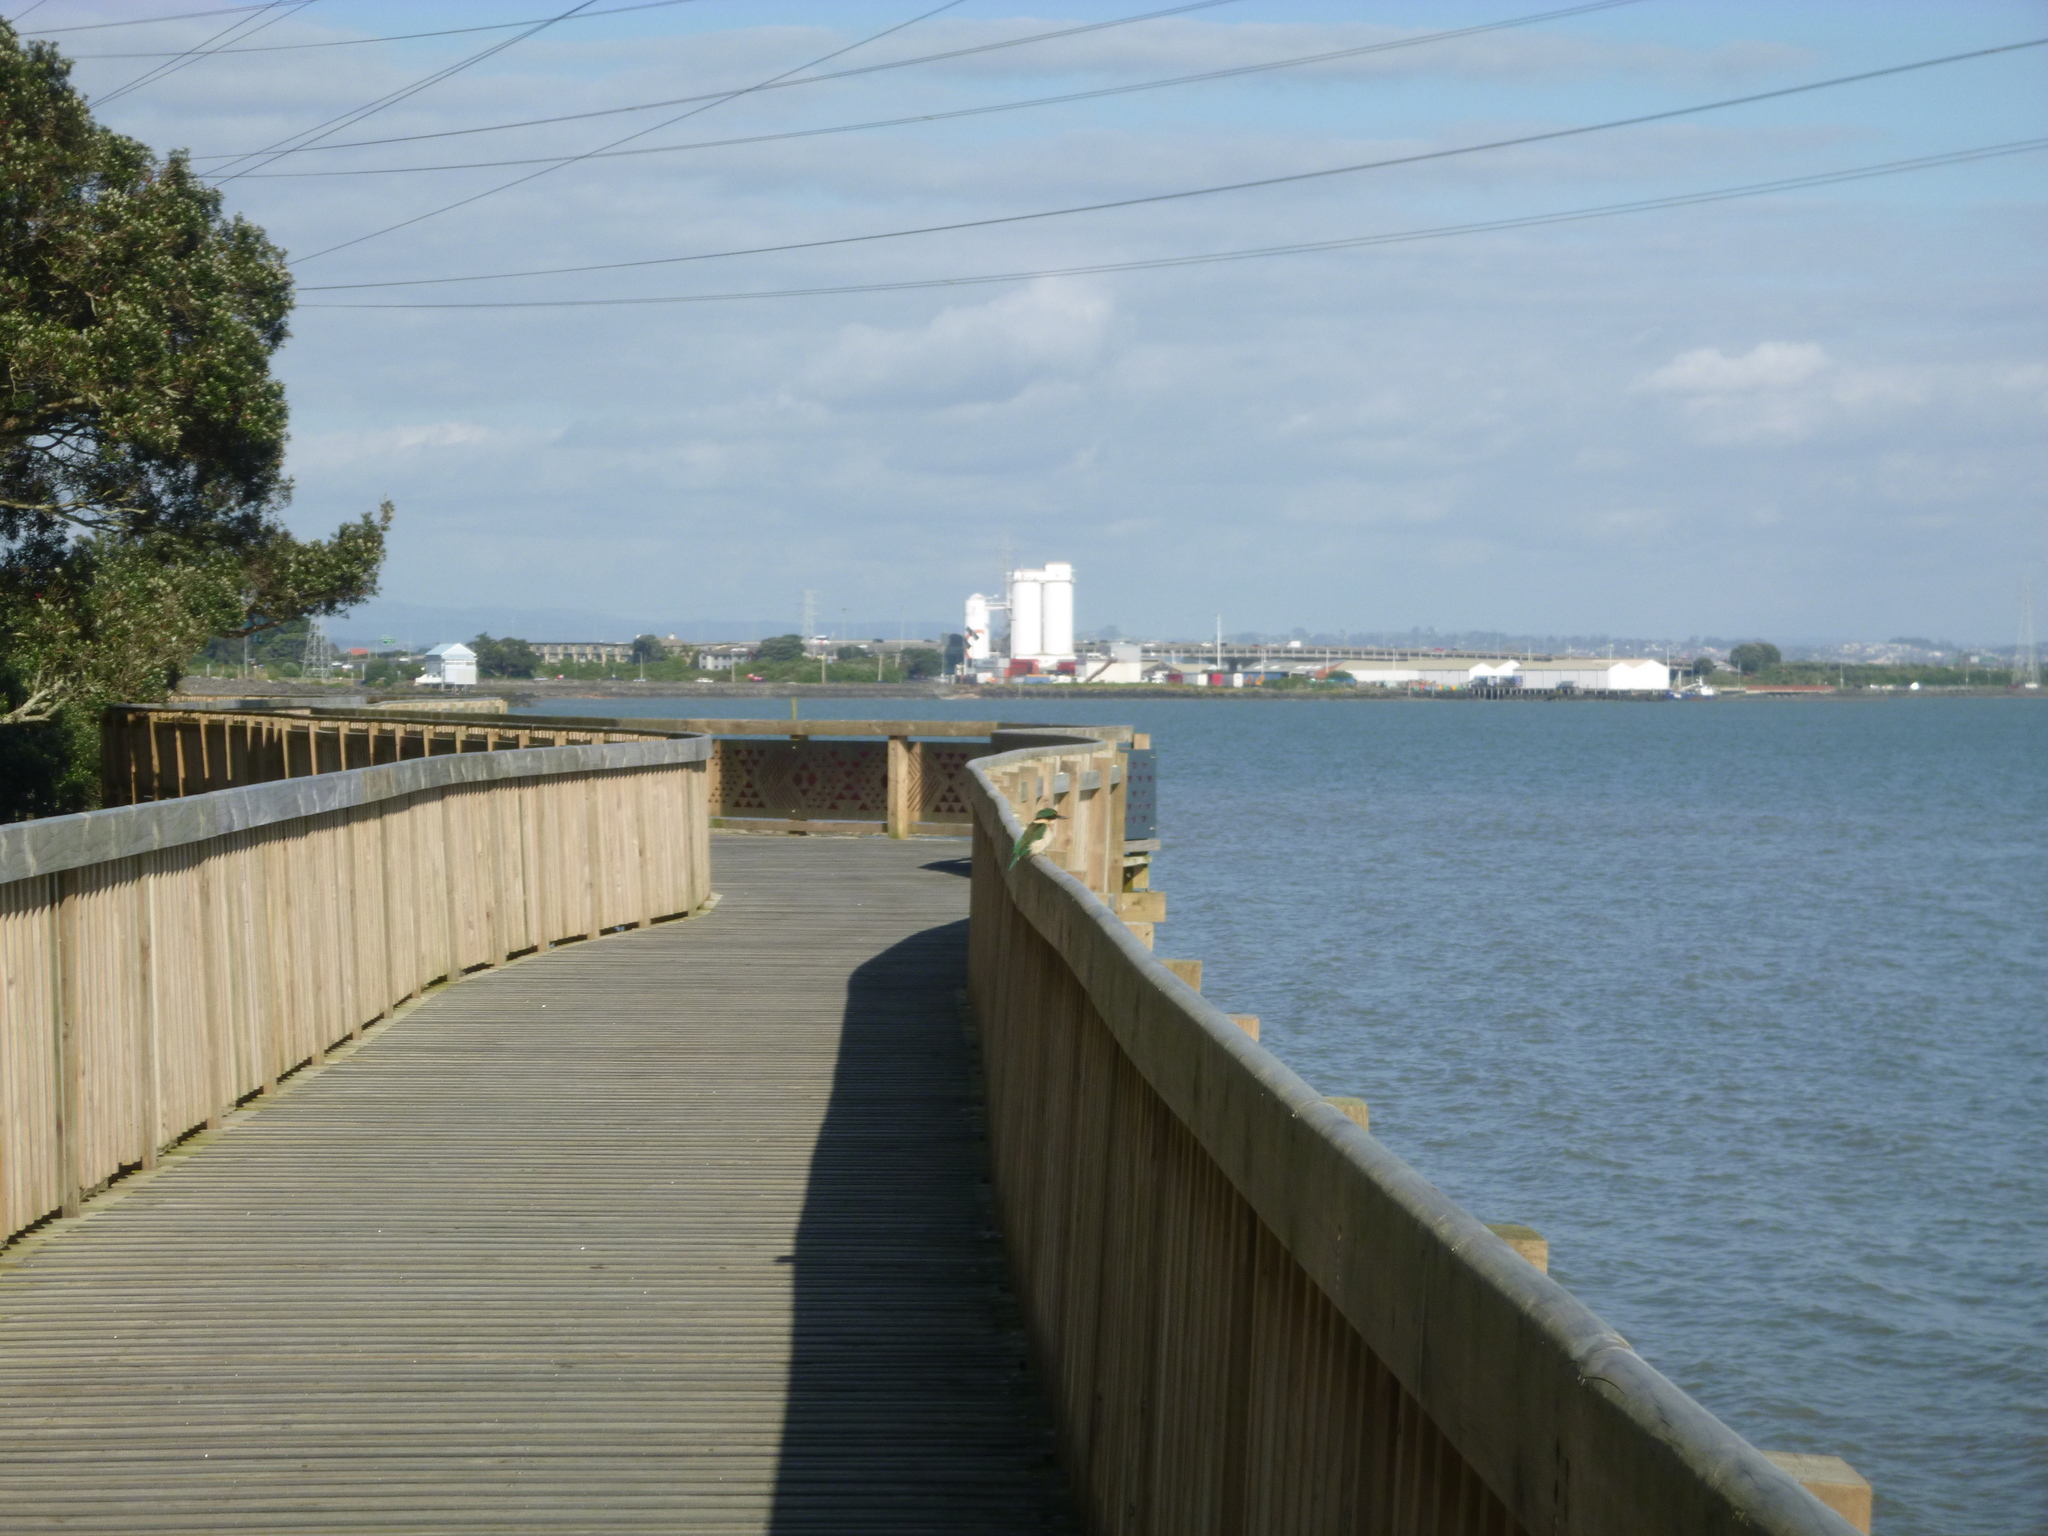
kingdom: Animalia
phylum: Chordata
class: Aves
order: Coraciiformes
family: Alcedinidae
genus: Todiramphus
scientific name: Todiramphus sanctus
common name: Sacred kingfisher
